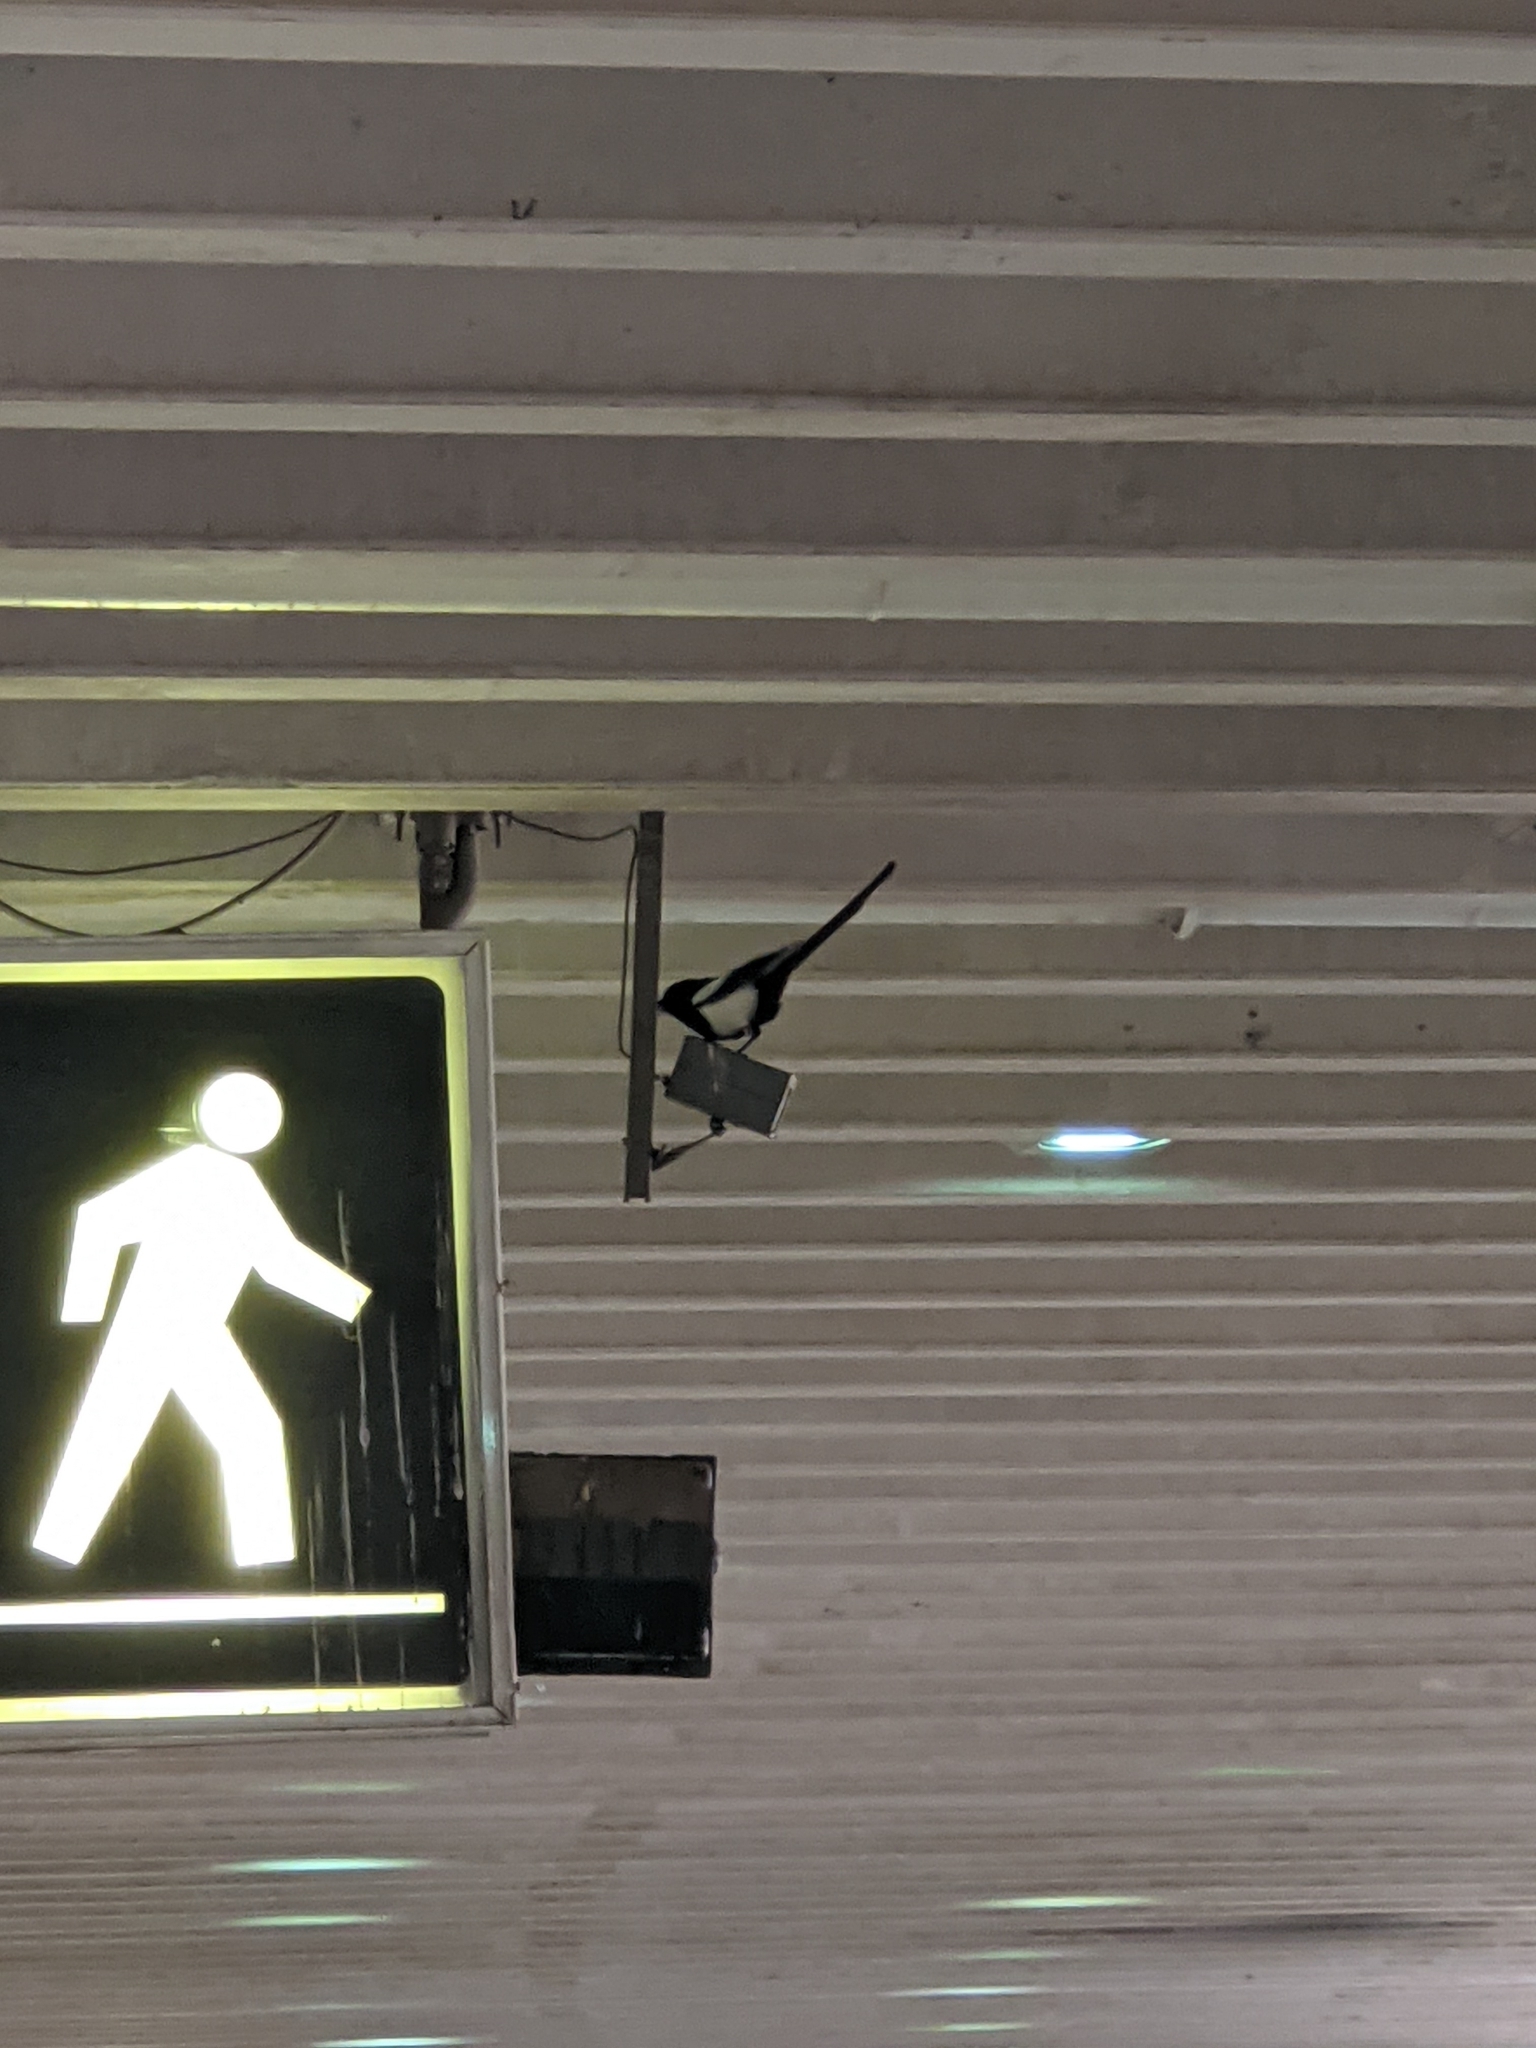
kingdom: Animalia
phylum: Chordata
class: Aves
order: Passeriformes
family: Corvidae
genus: Pica
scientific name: Pica hudsonia
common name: Black-billed magpie
